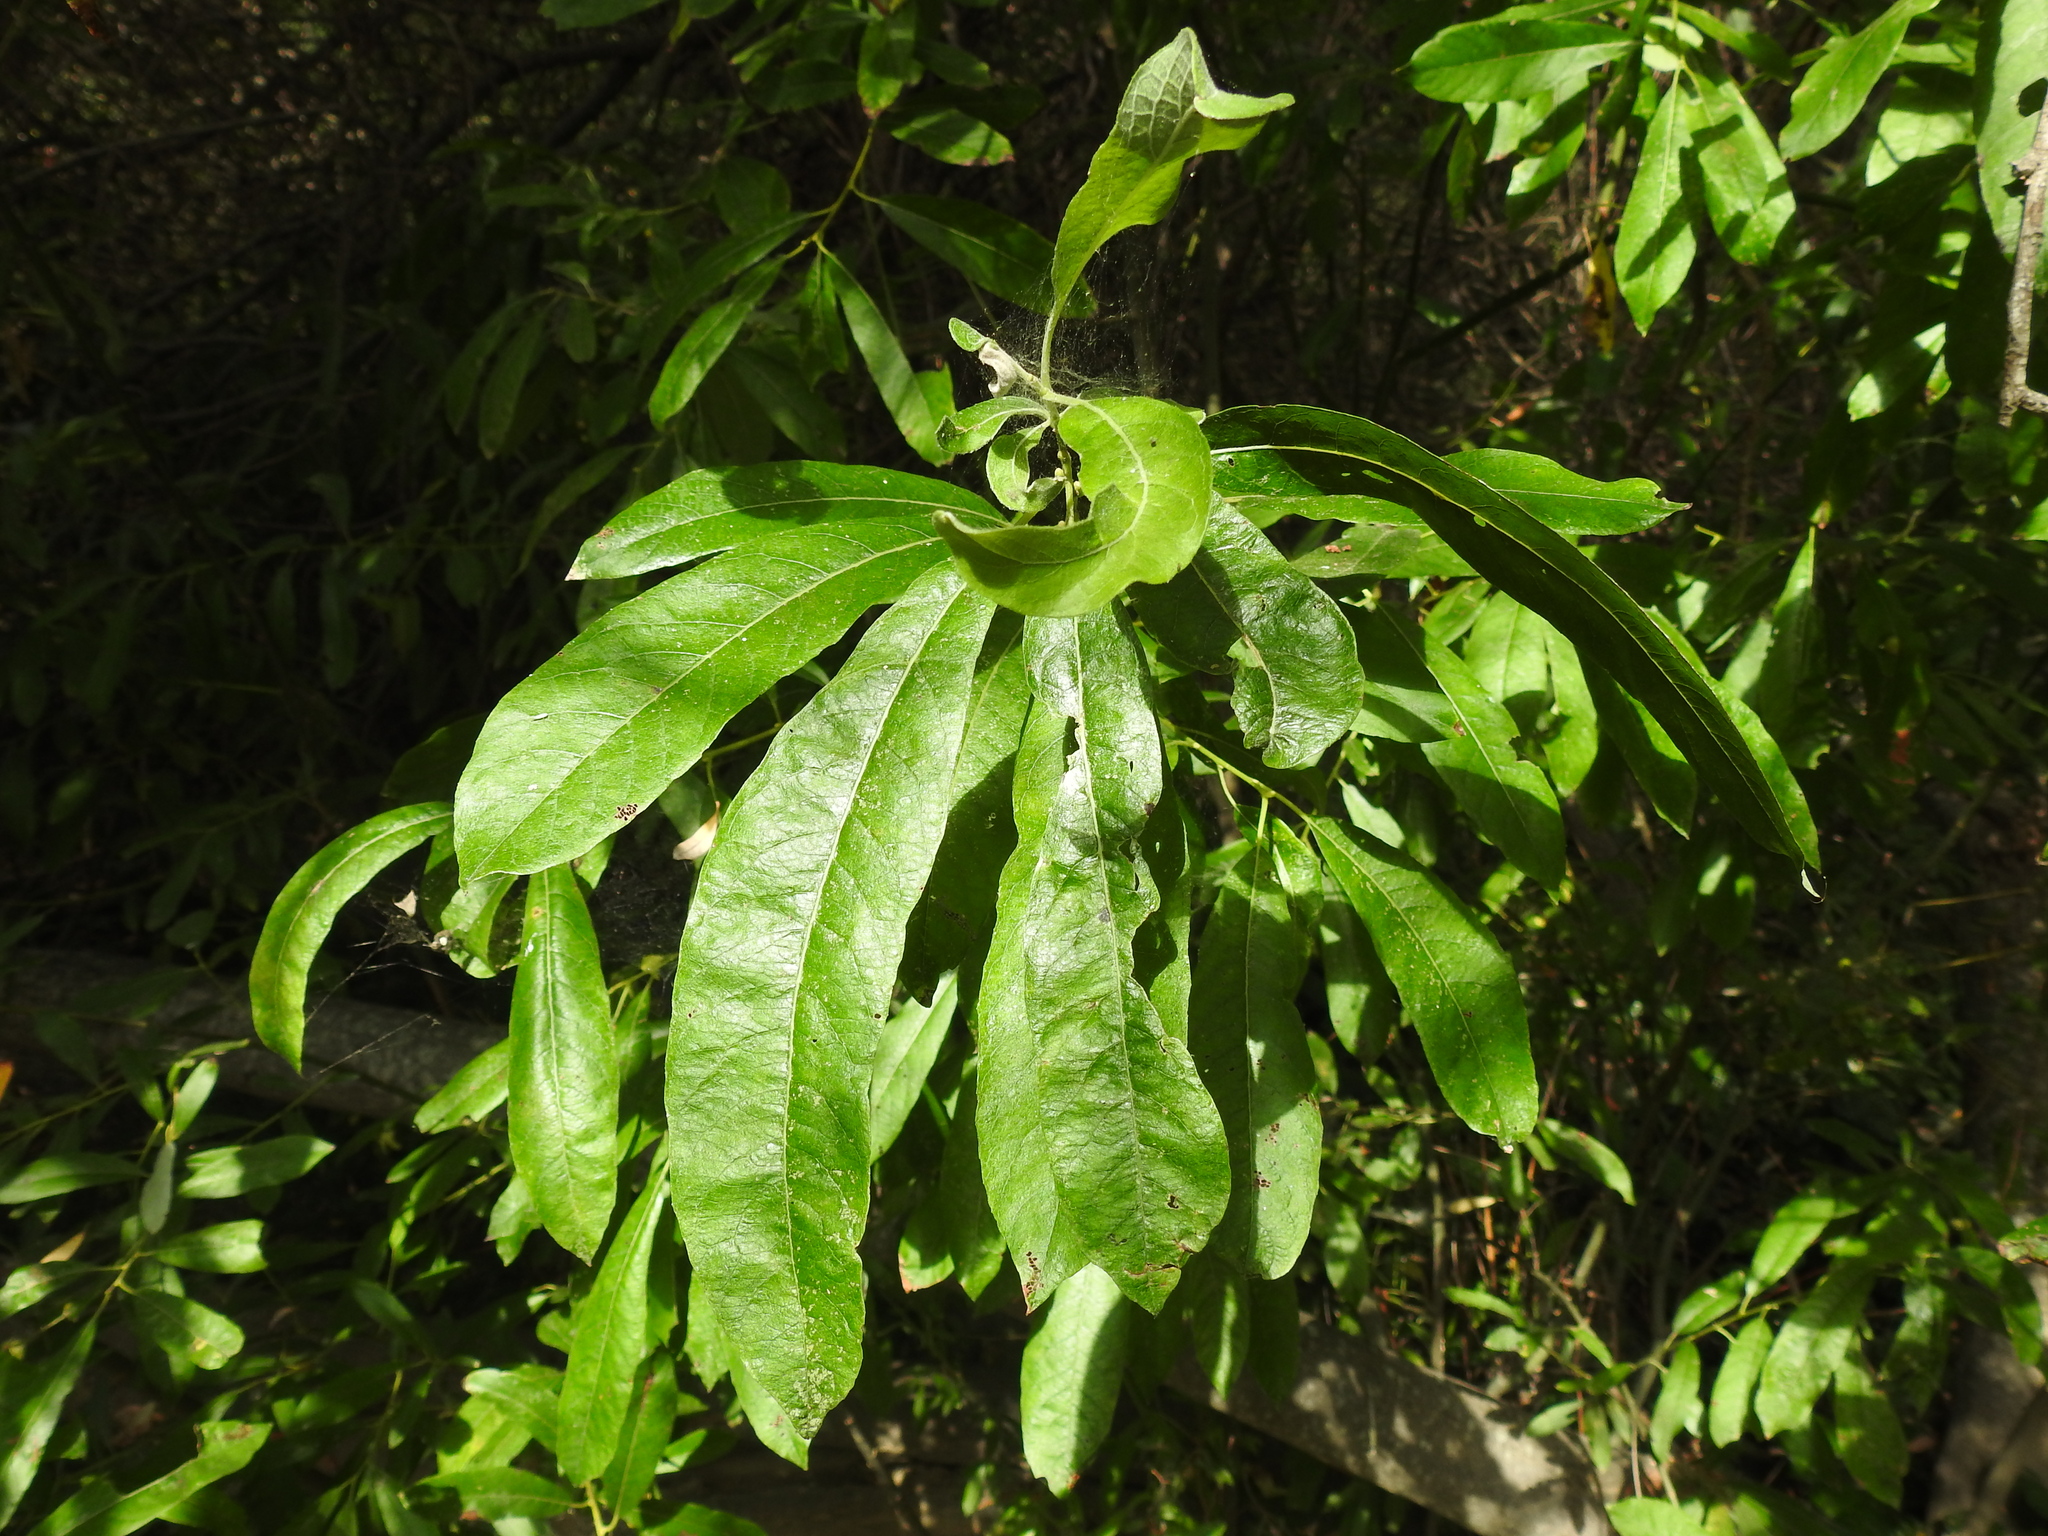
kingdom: Plantae
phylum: Tracheophyta
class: Magnoliopsida
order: Malpighiales
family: Salicaceae
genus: Salix
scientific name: Salix lasiolepis
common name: Arroyo willow
